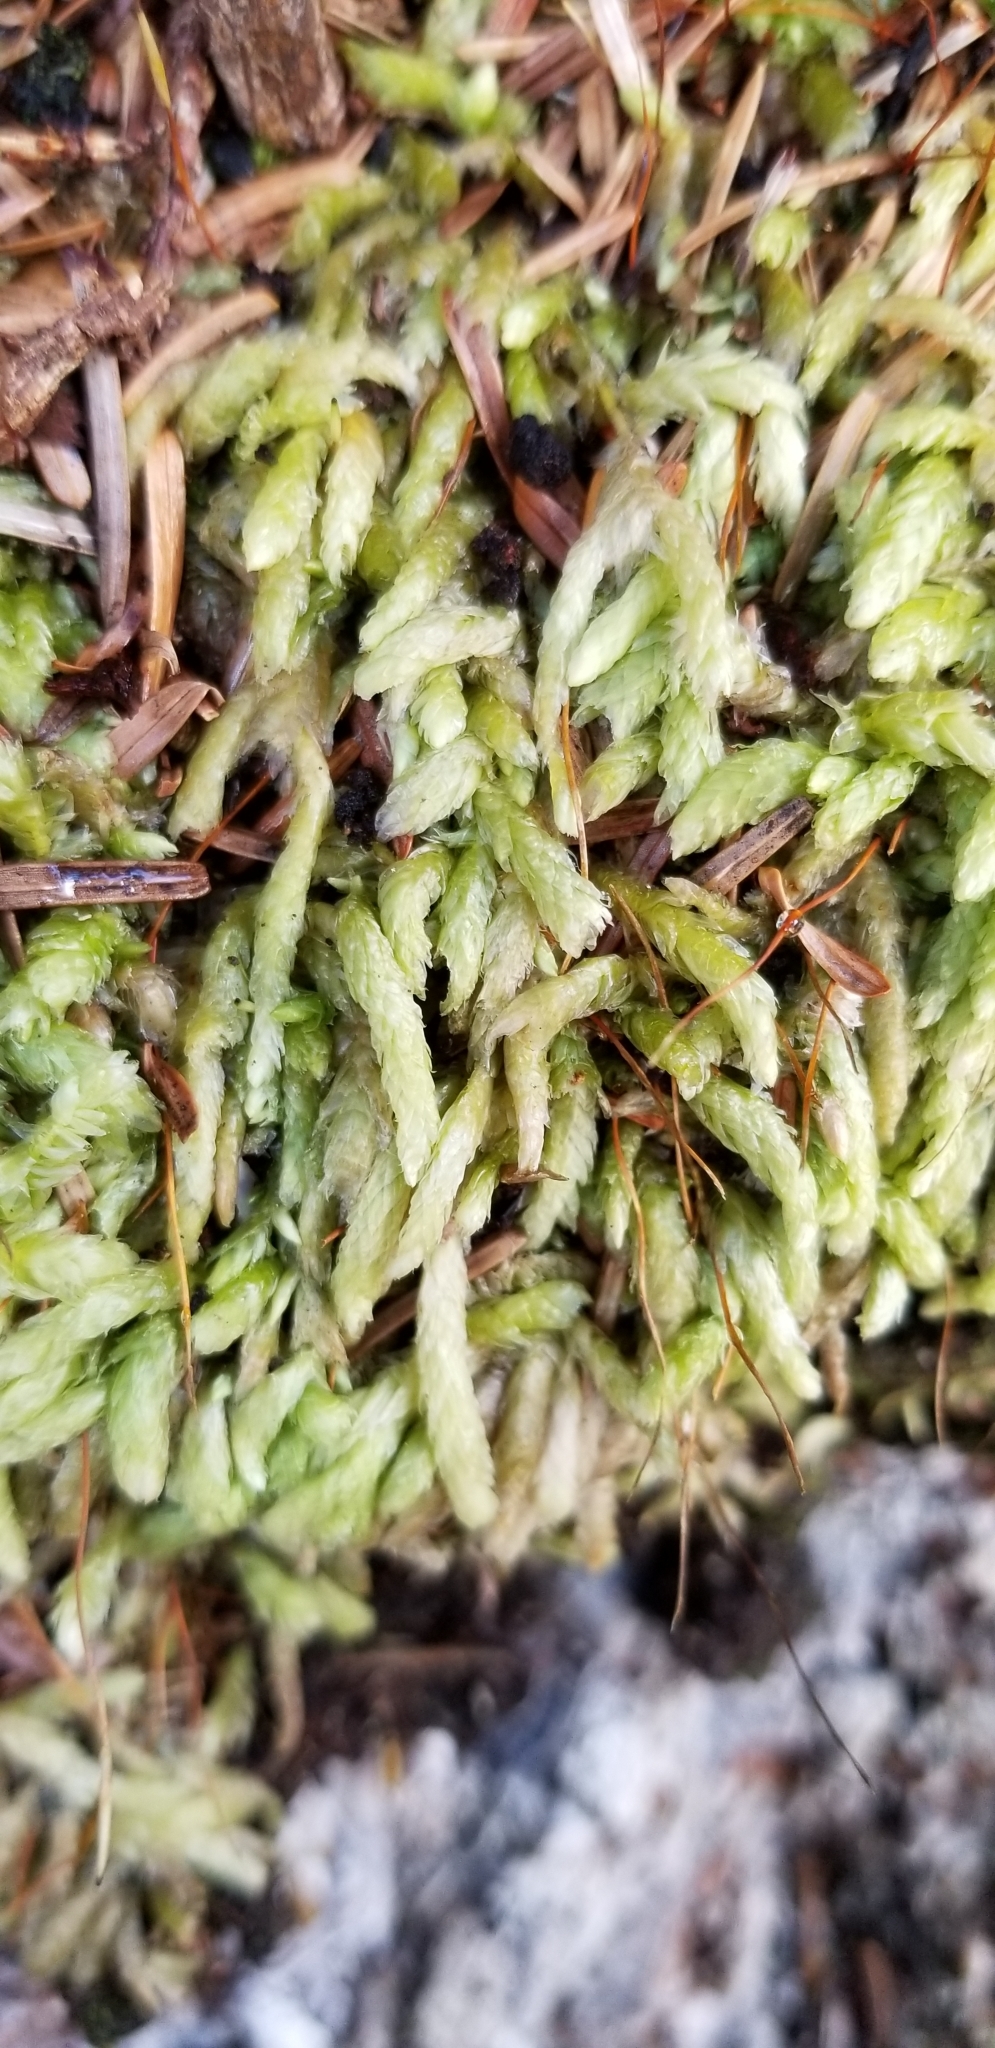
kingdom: Plantae
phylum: Bryophyta
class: Bryopsida
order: Hypnales
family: Plagiotheciaceae
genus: Plagiothecium
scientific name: Plagiothecium undulatum
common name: Waved silk-moss
